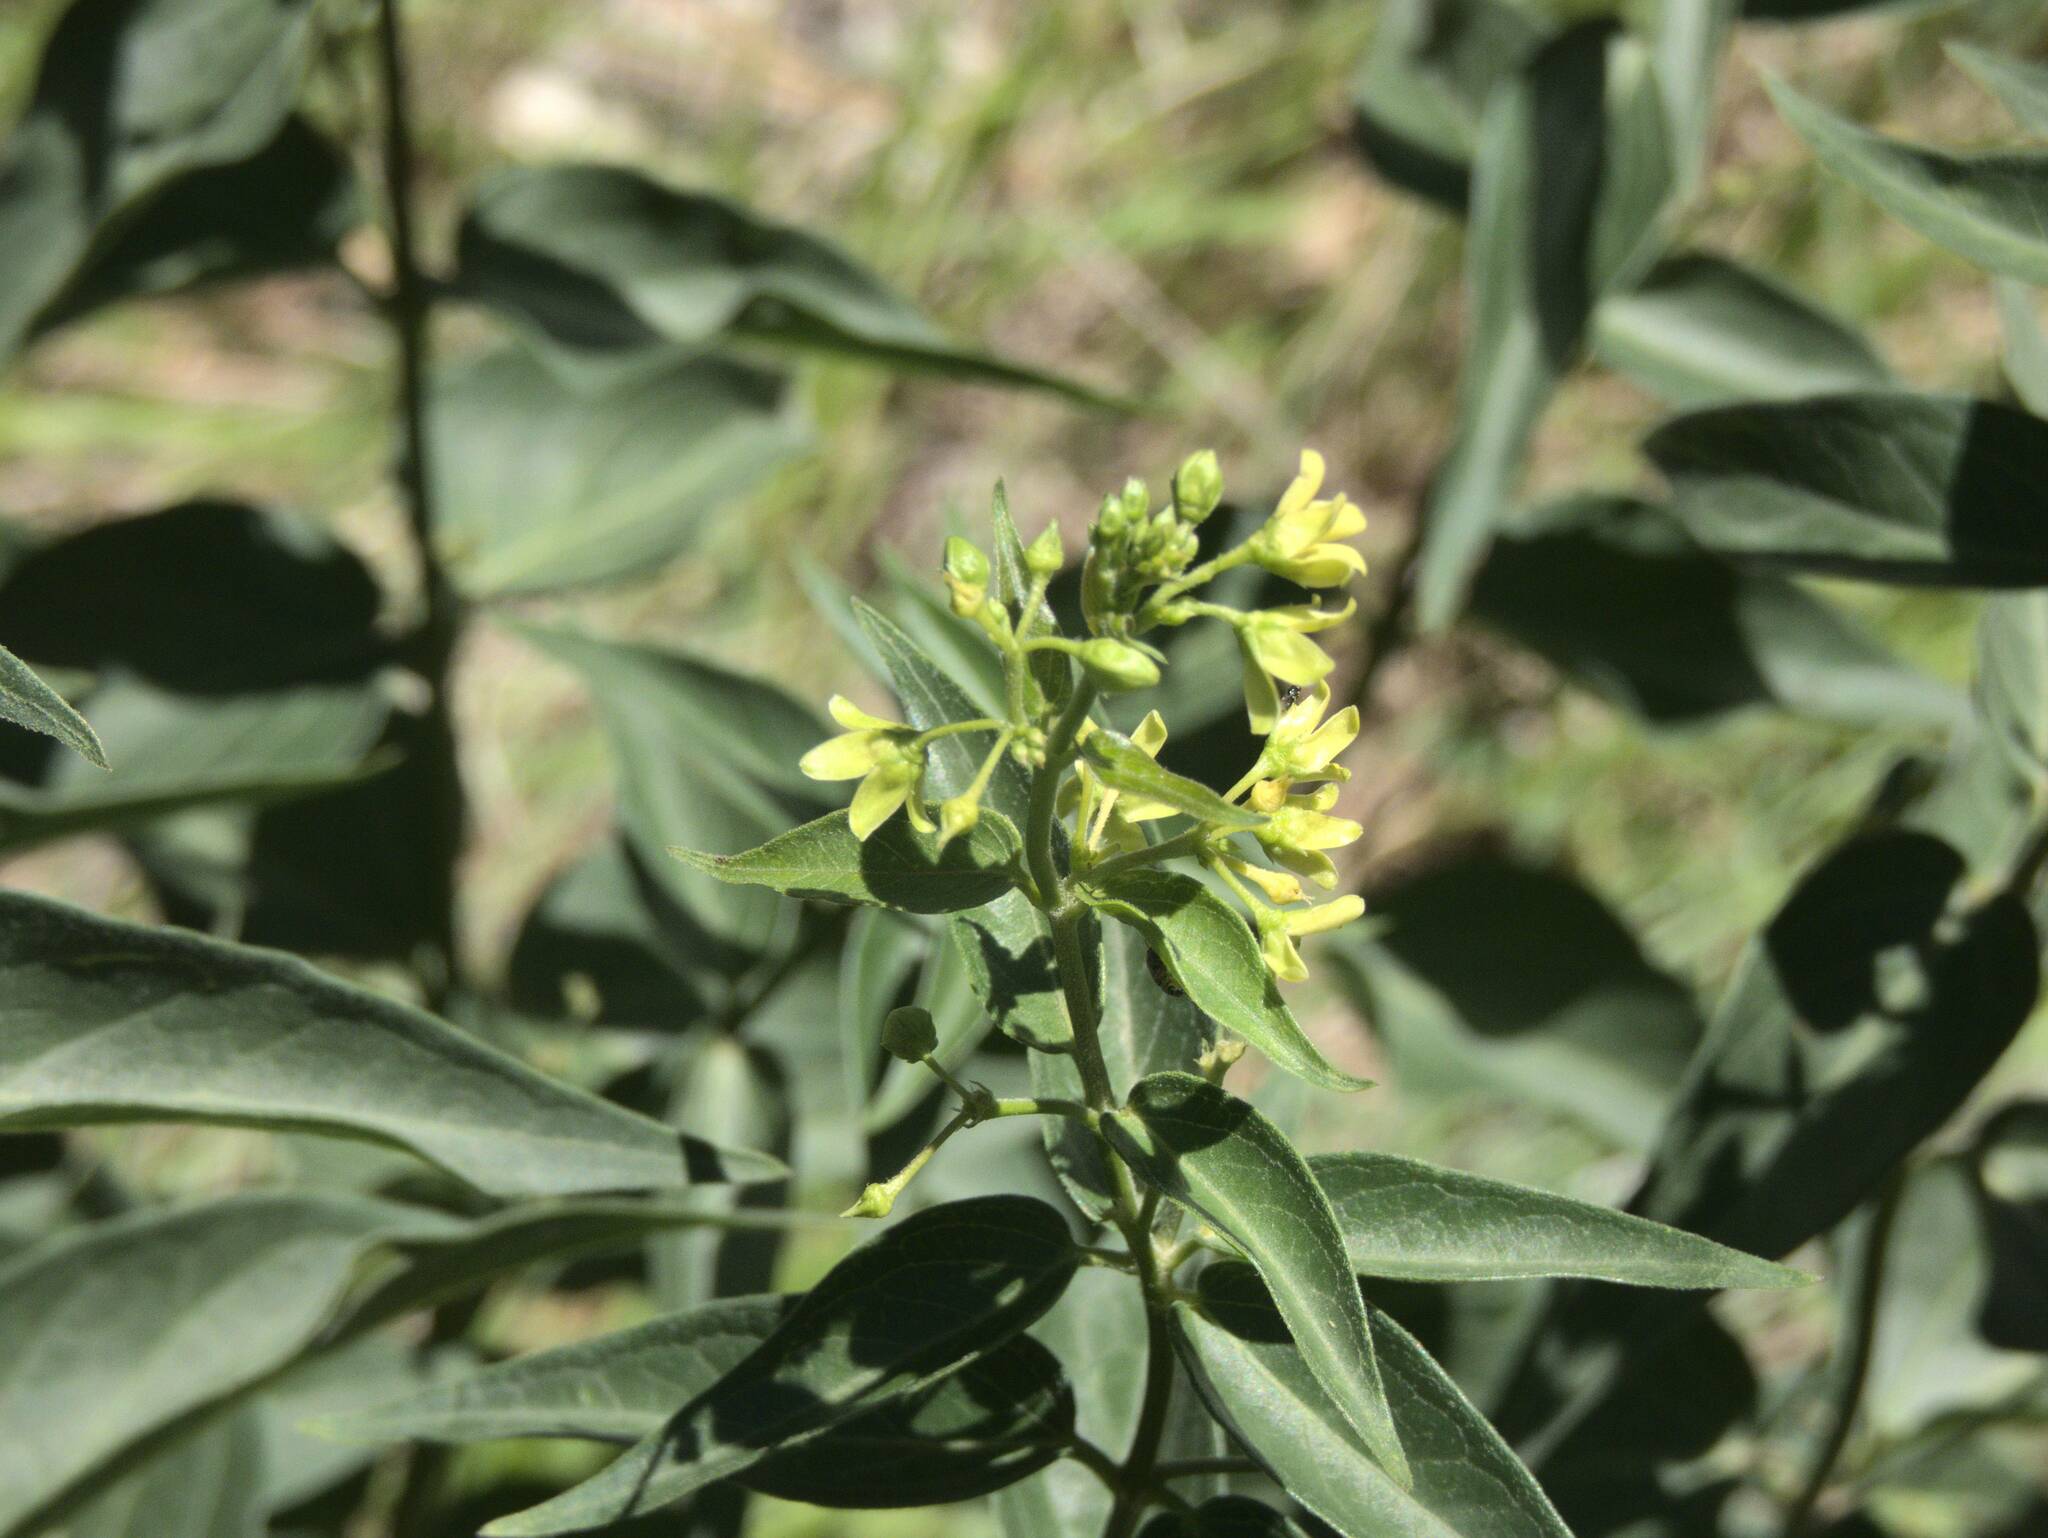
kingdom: Plantae
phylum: Tracheophyta
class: Magnoliopsida
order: Gentianales
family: Apocynaceae
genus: Vincetoxicum
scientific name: Vincetoxicum hirundinaria
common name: White swallowwort
